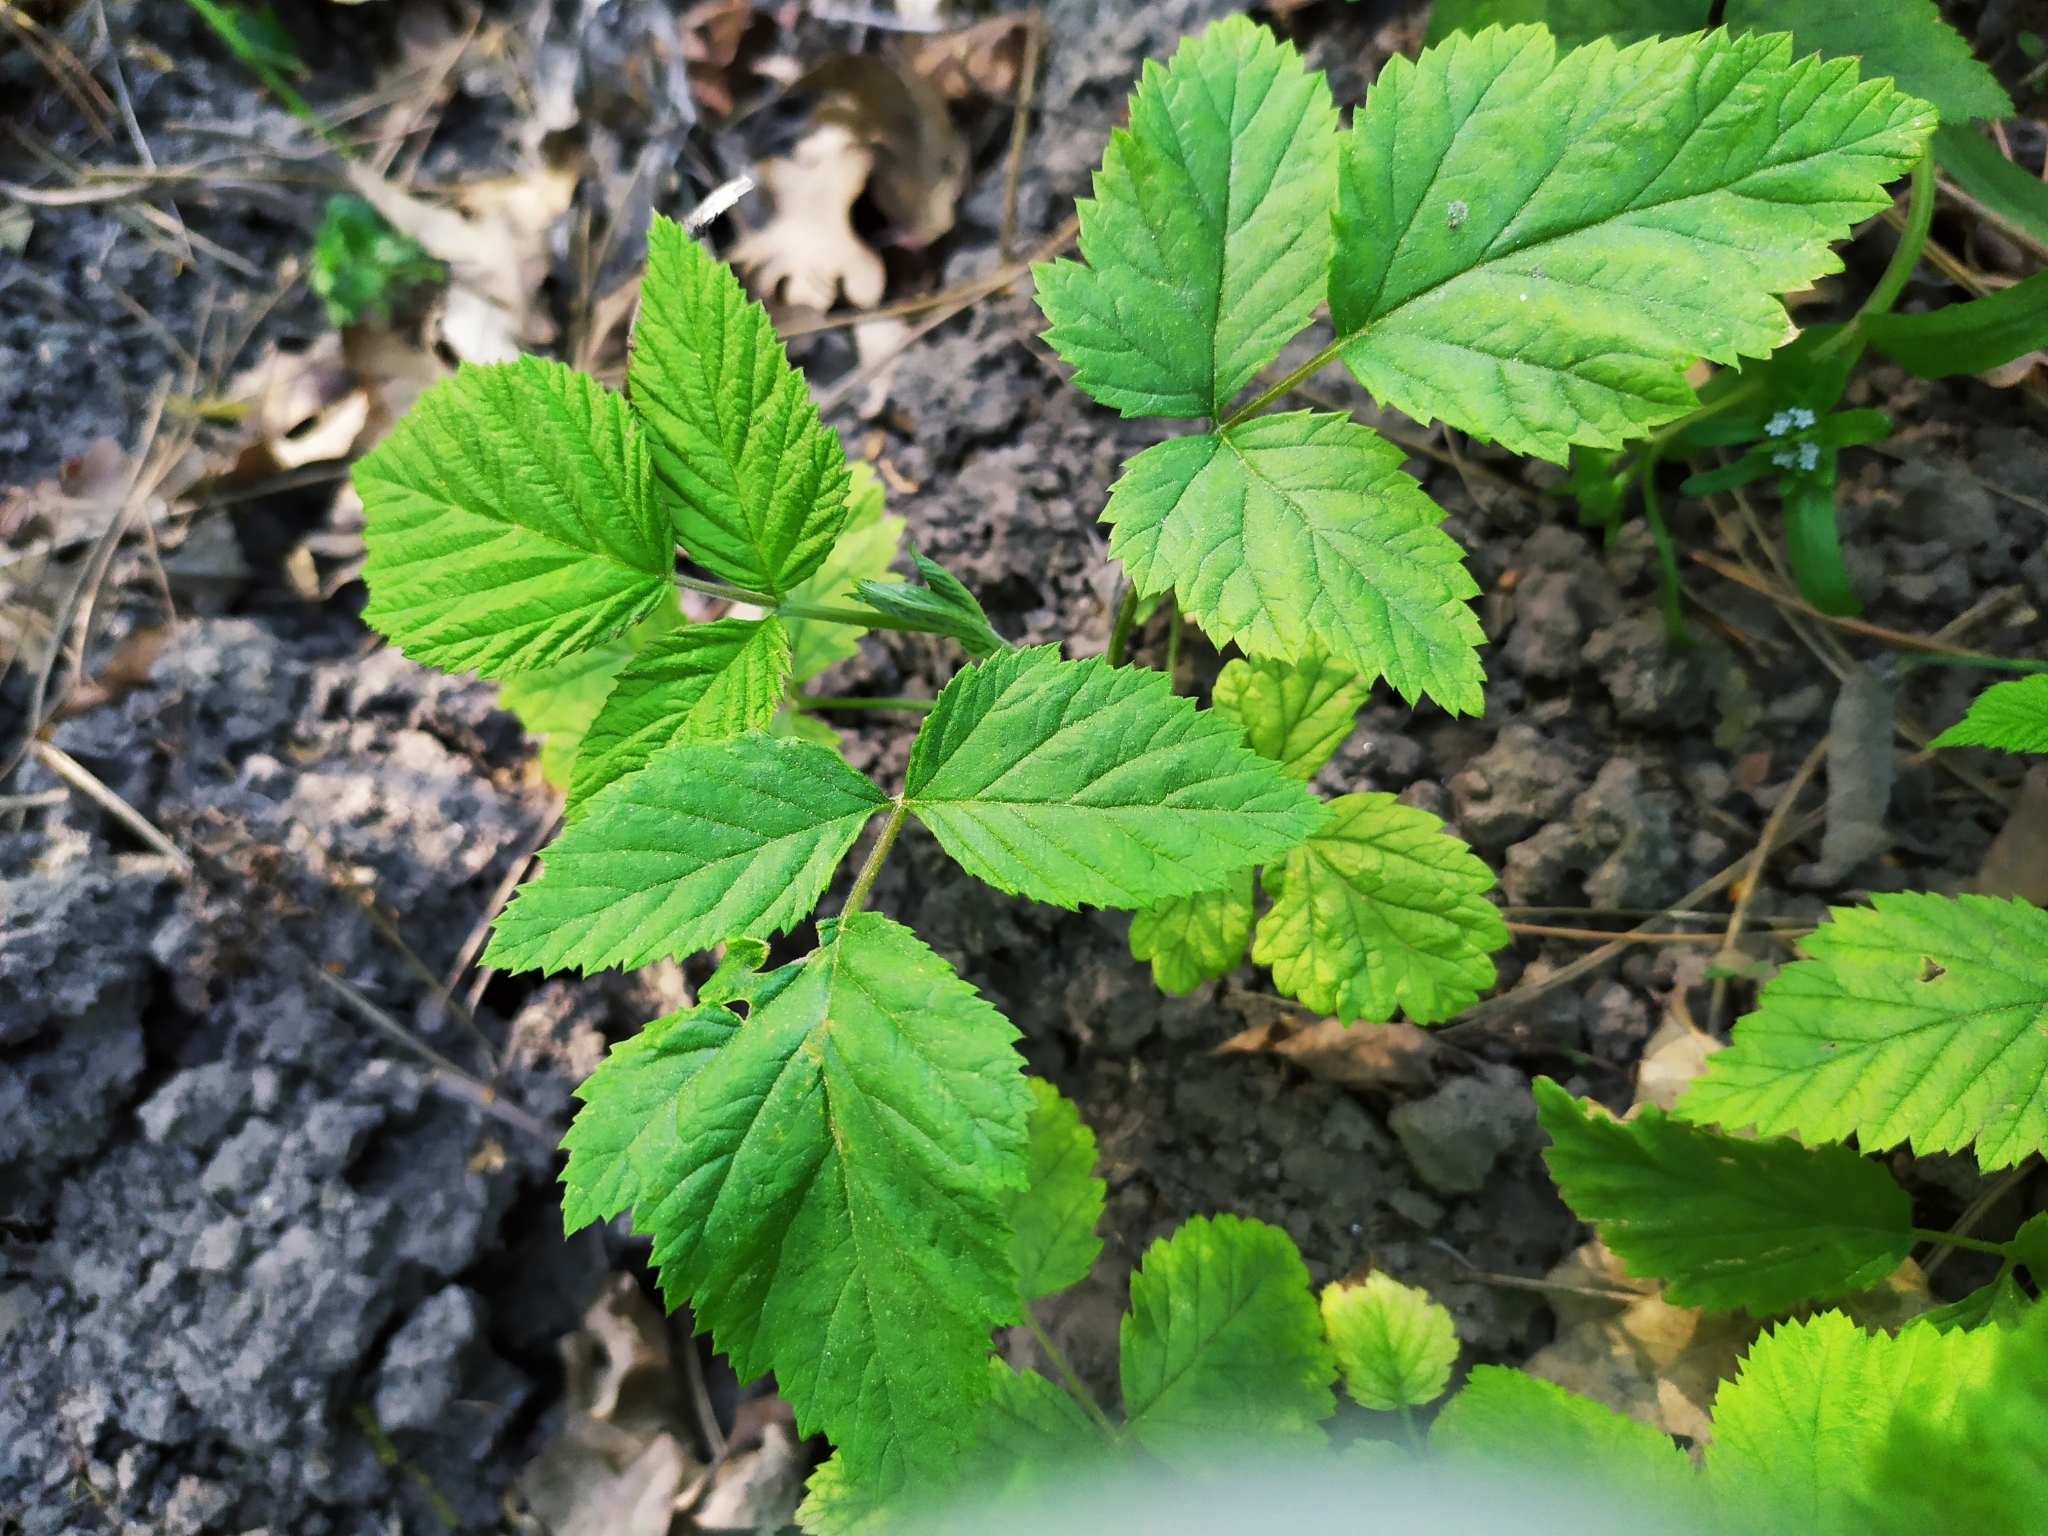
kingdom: Plantae
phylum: Tracheophyta
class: Magnoliopsida
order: Rosales
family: Rosaceae
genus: Rubus
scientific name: Rubus idaeus
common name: Raspberry
